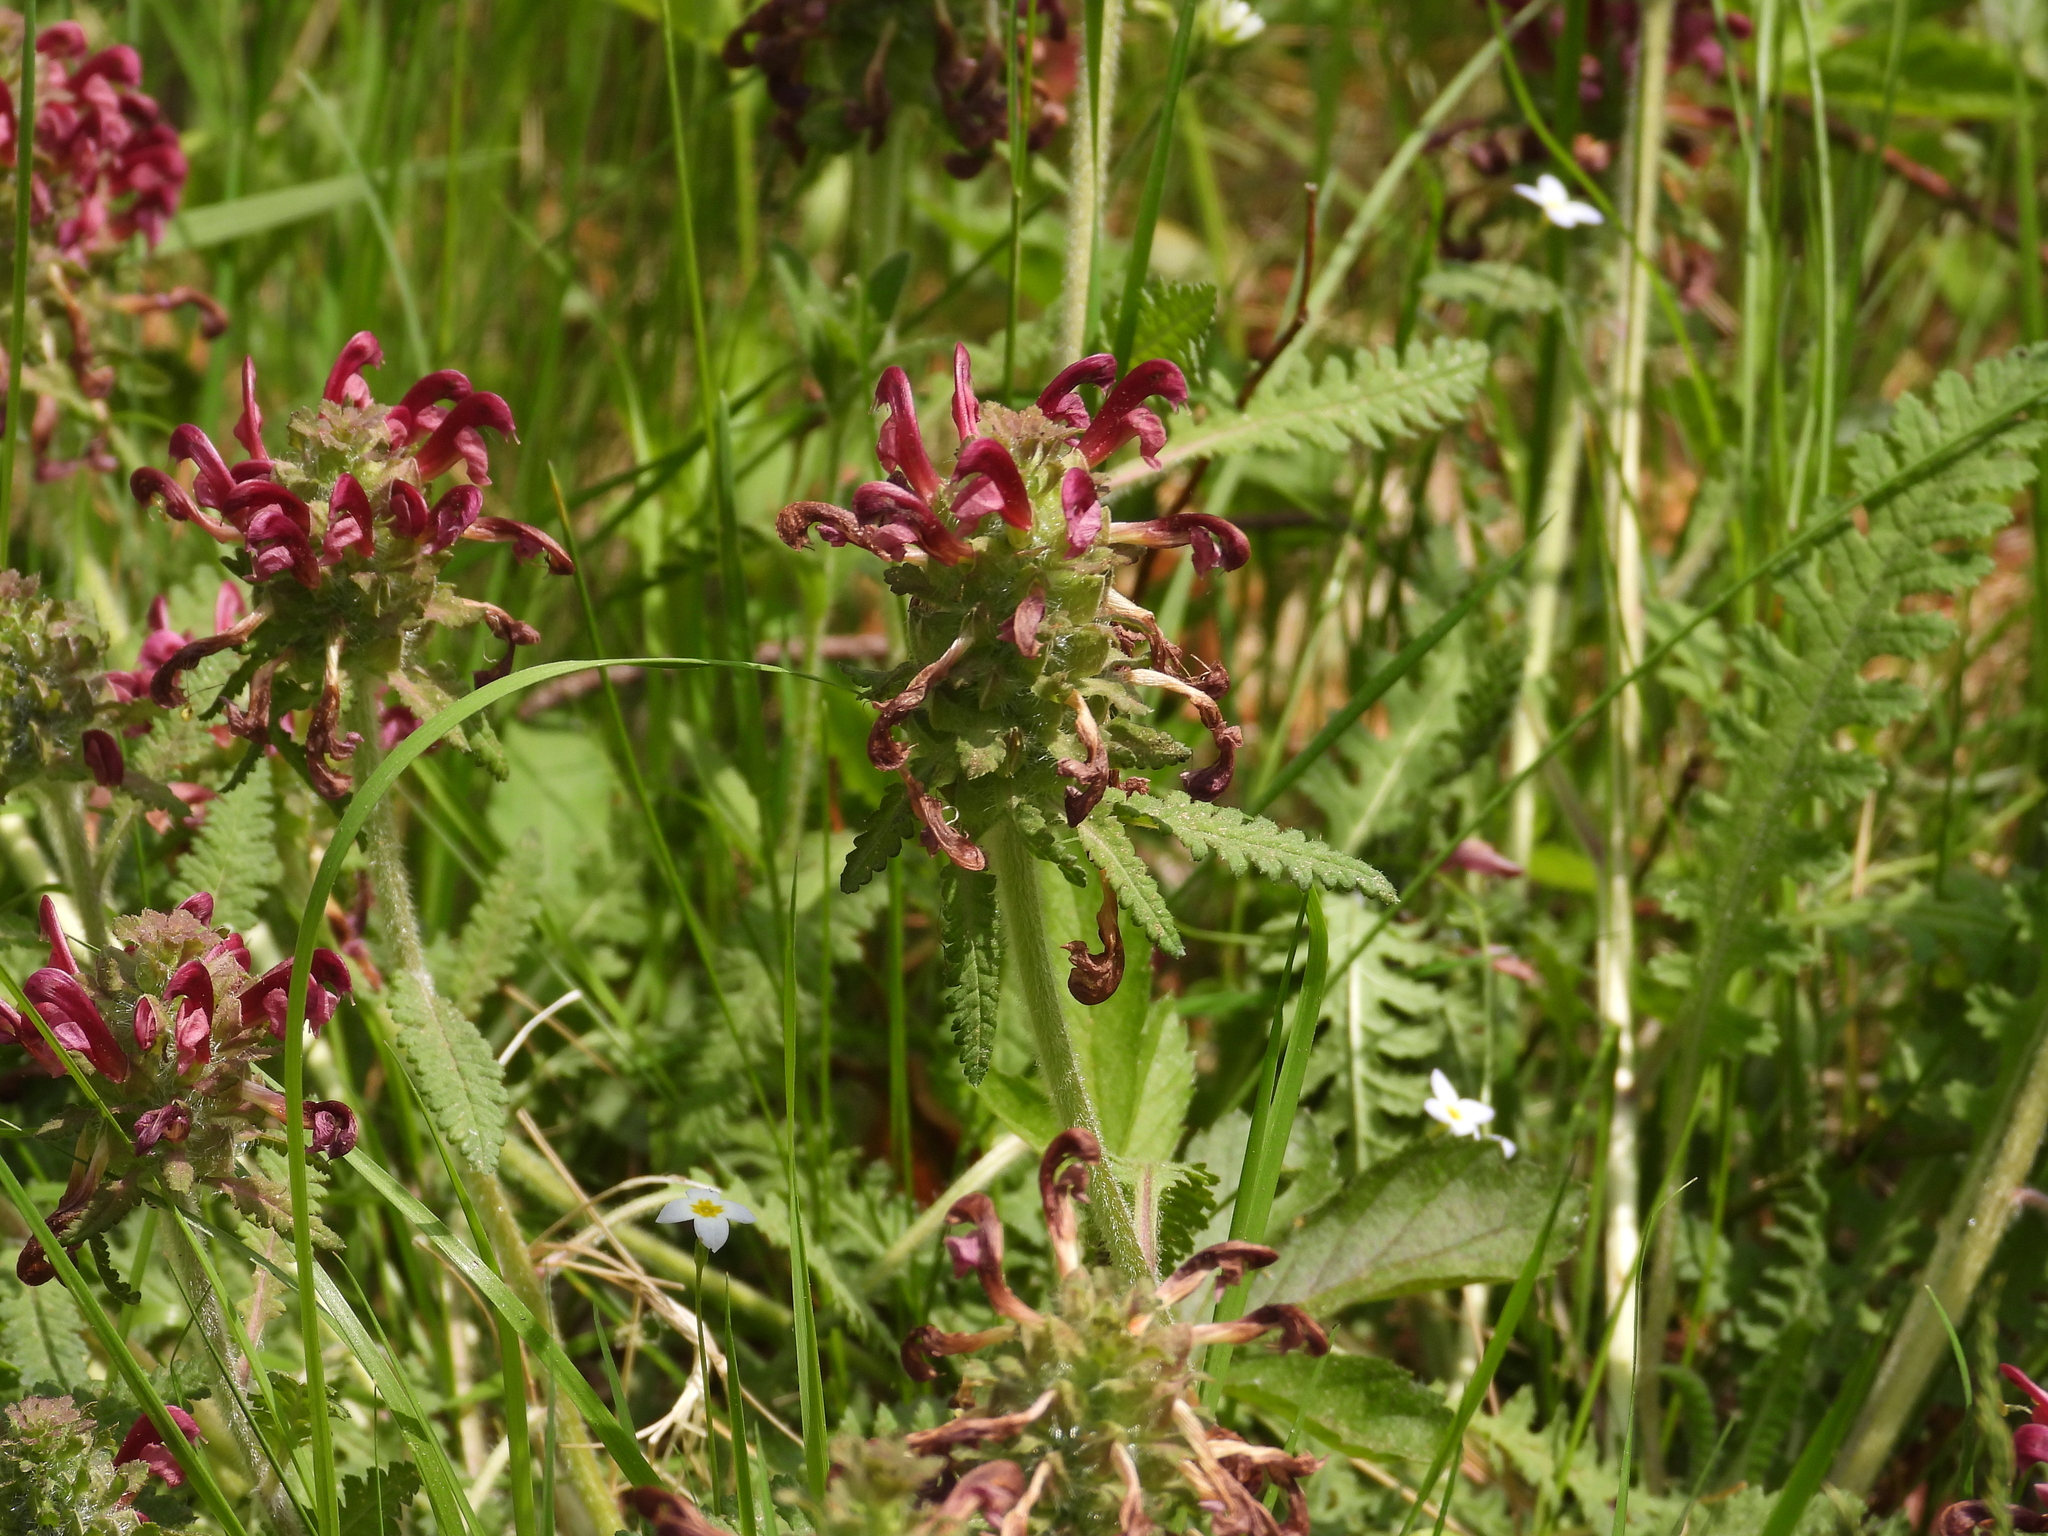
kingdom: Plantae
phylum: Tracheophyta
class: Magnoliopsida
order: Lamiales
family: Orobanchaceae
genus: Pedicularis
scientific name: Pedicularis canadensis
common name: Early lousewort
